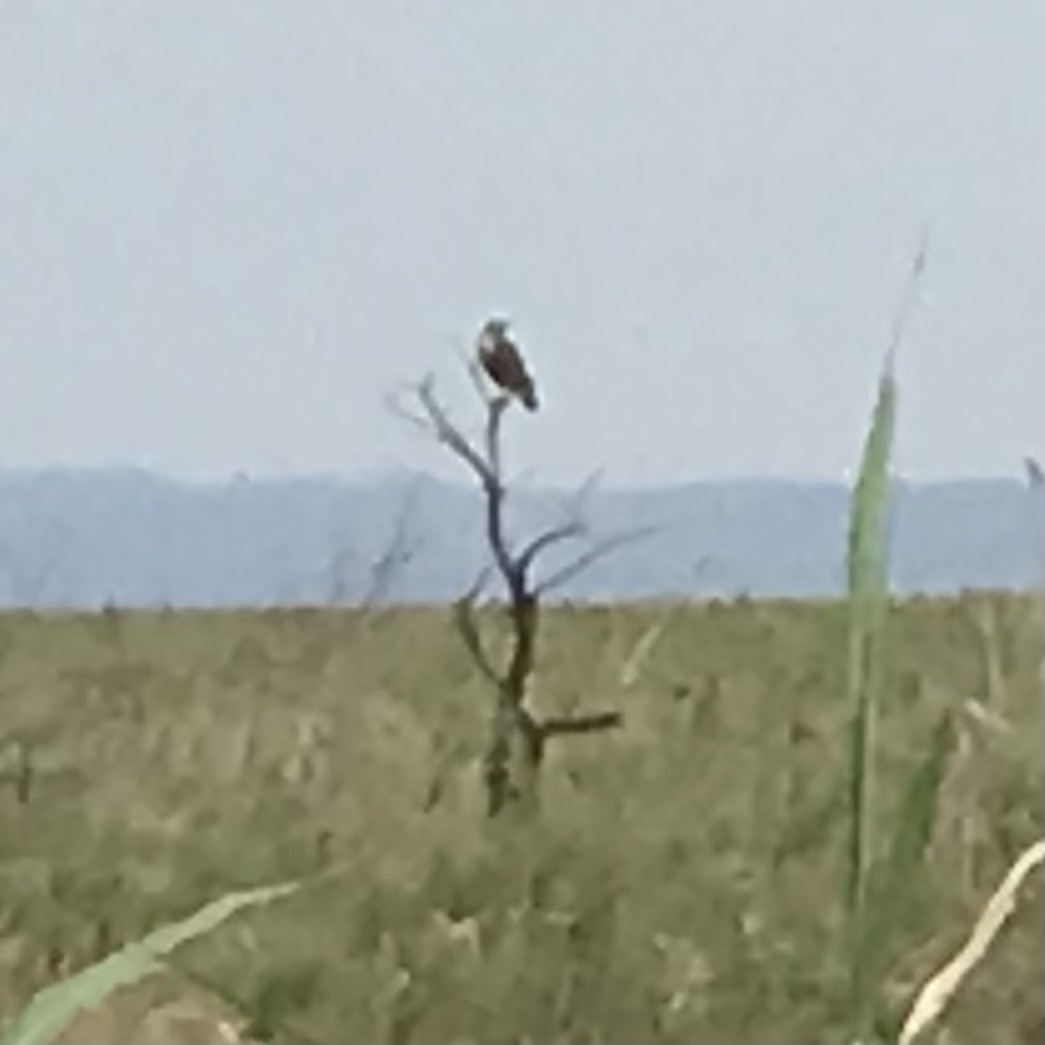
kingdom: Animalia
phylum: Chordata
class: Aves
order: Falconiformes
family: Falconidae
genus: Daptrius
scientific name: Daptrius
